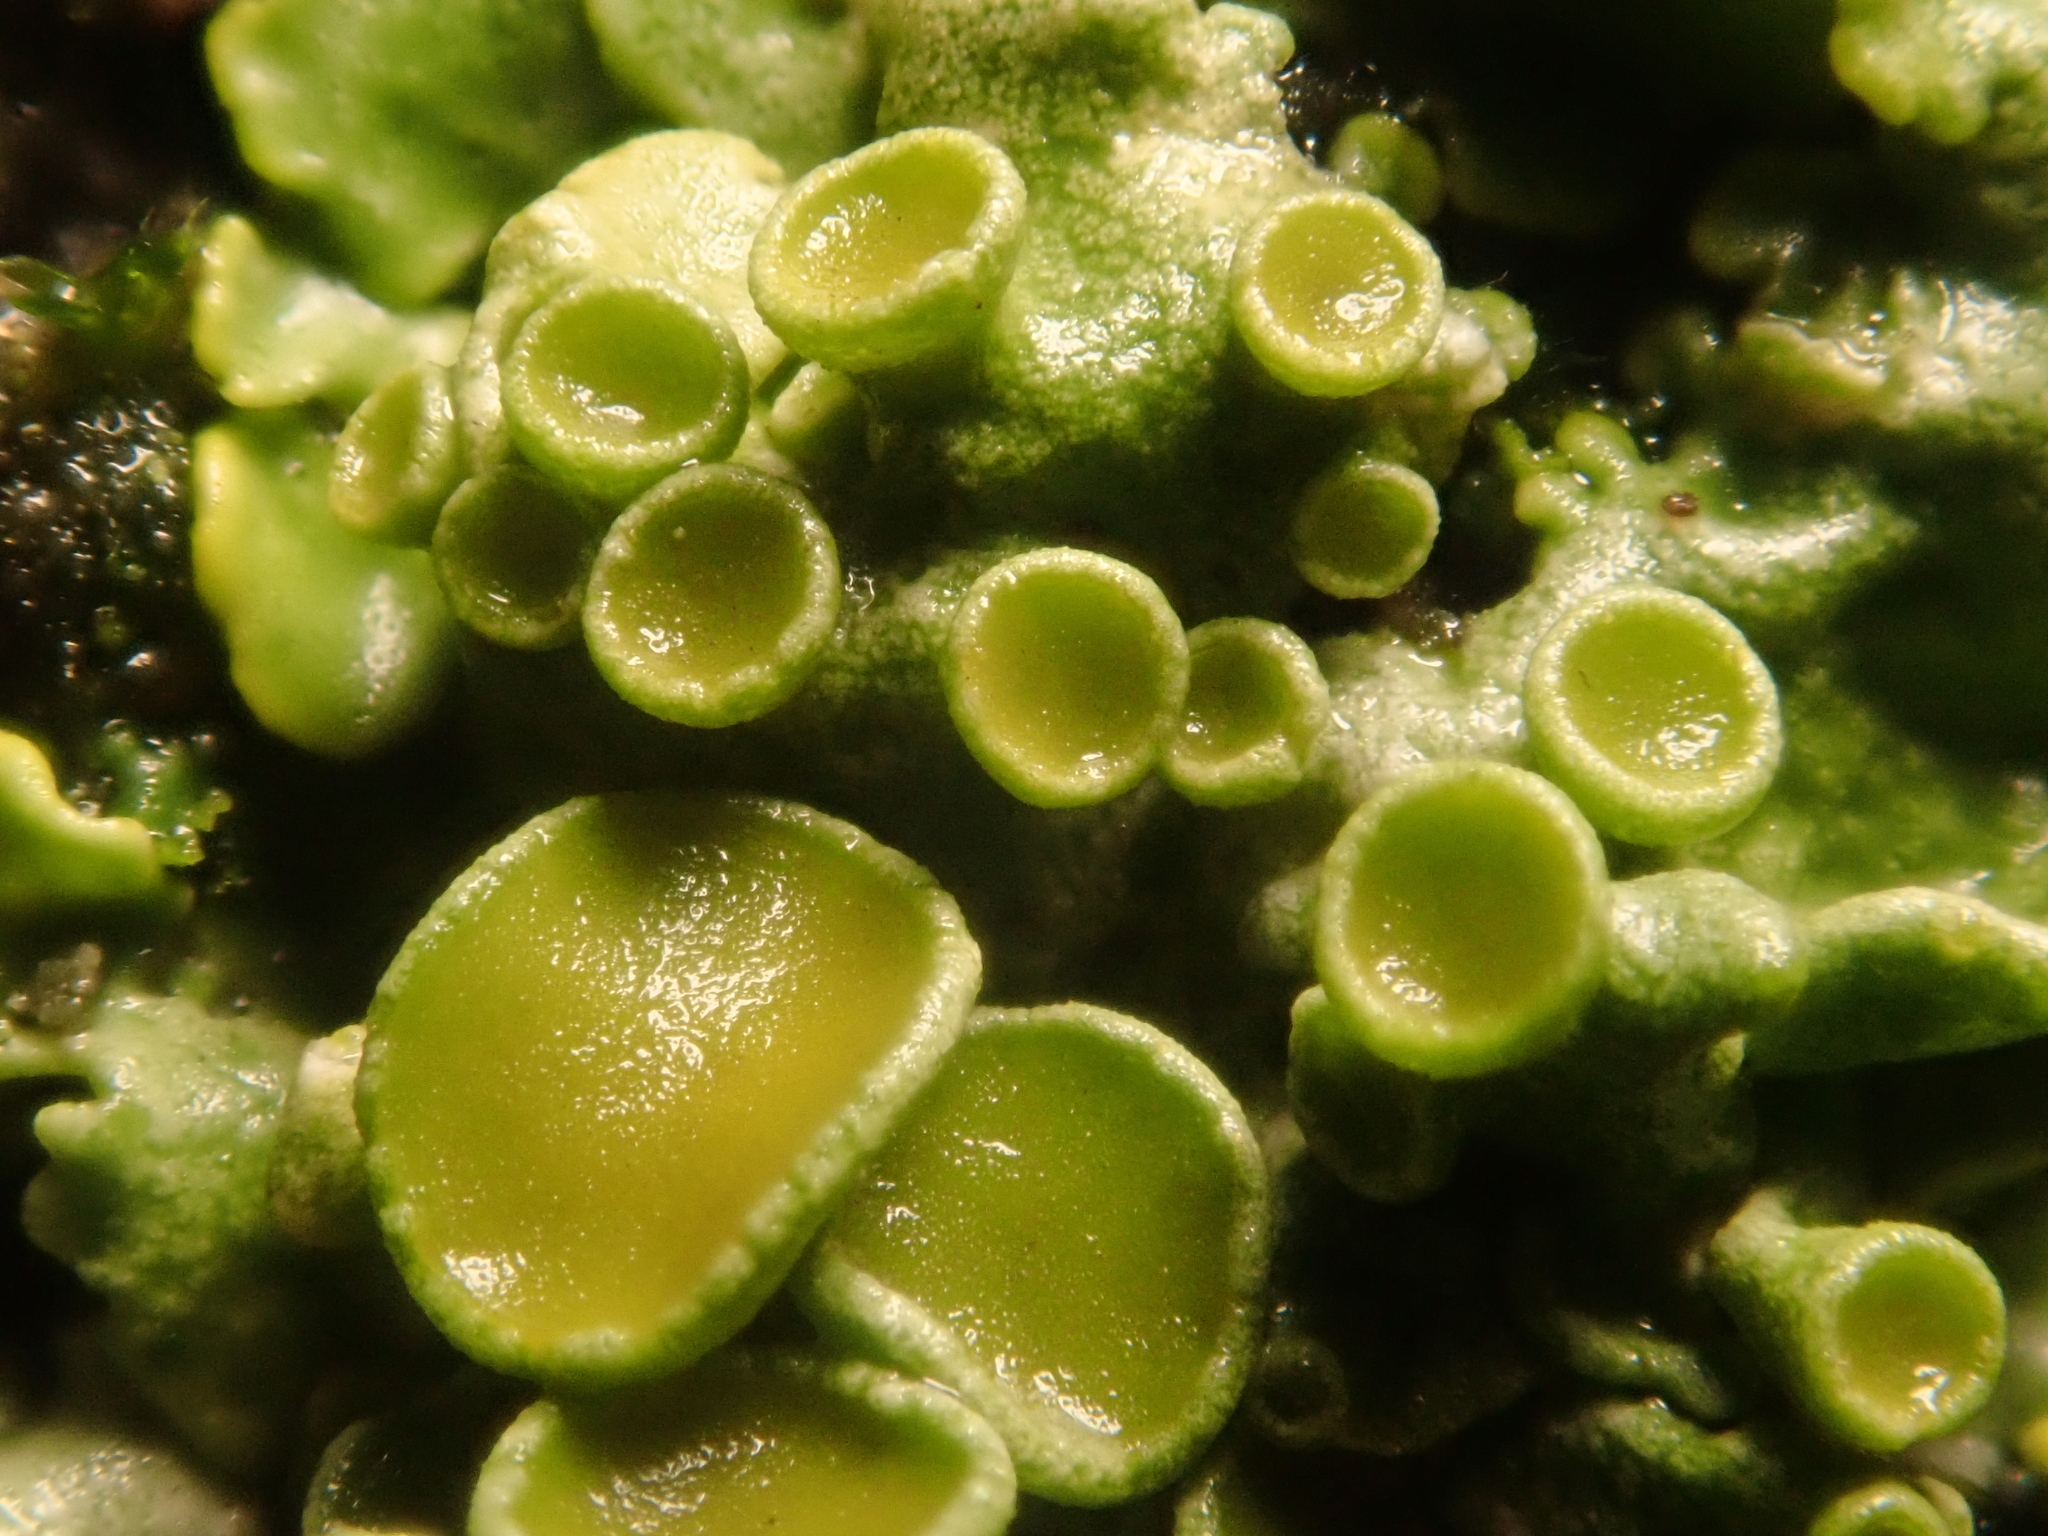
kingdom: Fungi
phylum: Ascomycota
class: Lecanoromycetes
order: Teloschistales
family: Teloschistaceae
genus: Xanthoria
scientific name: Xanthoria parietina
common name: Common orange lichen
